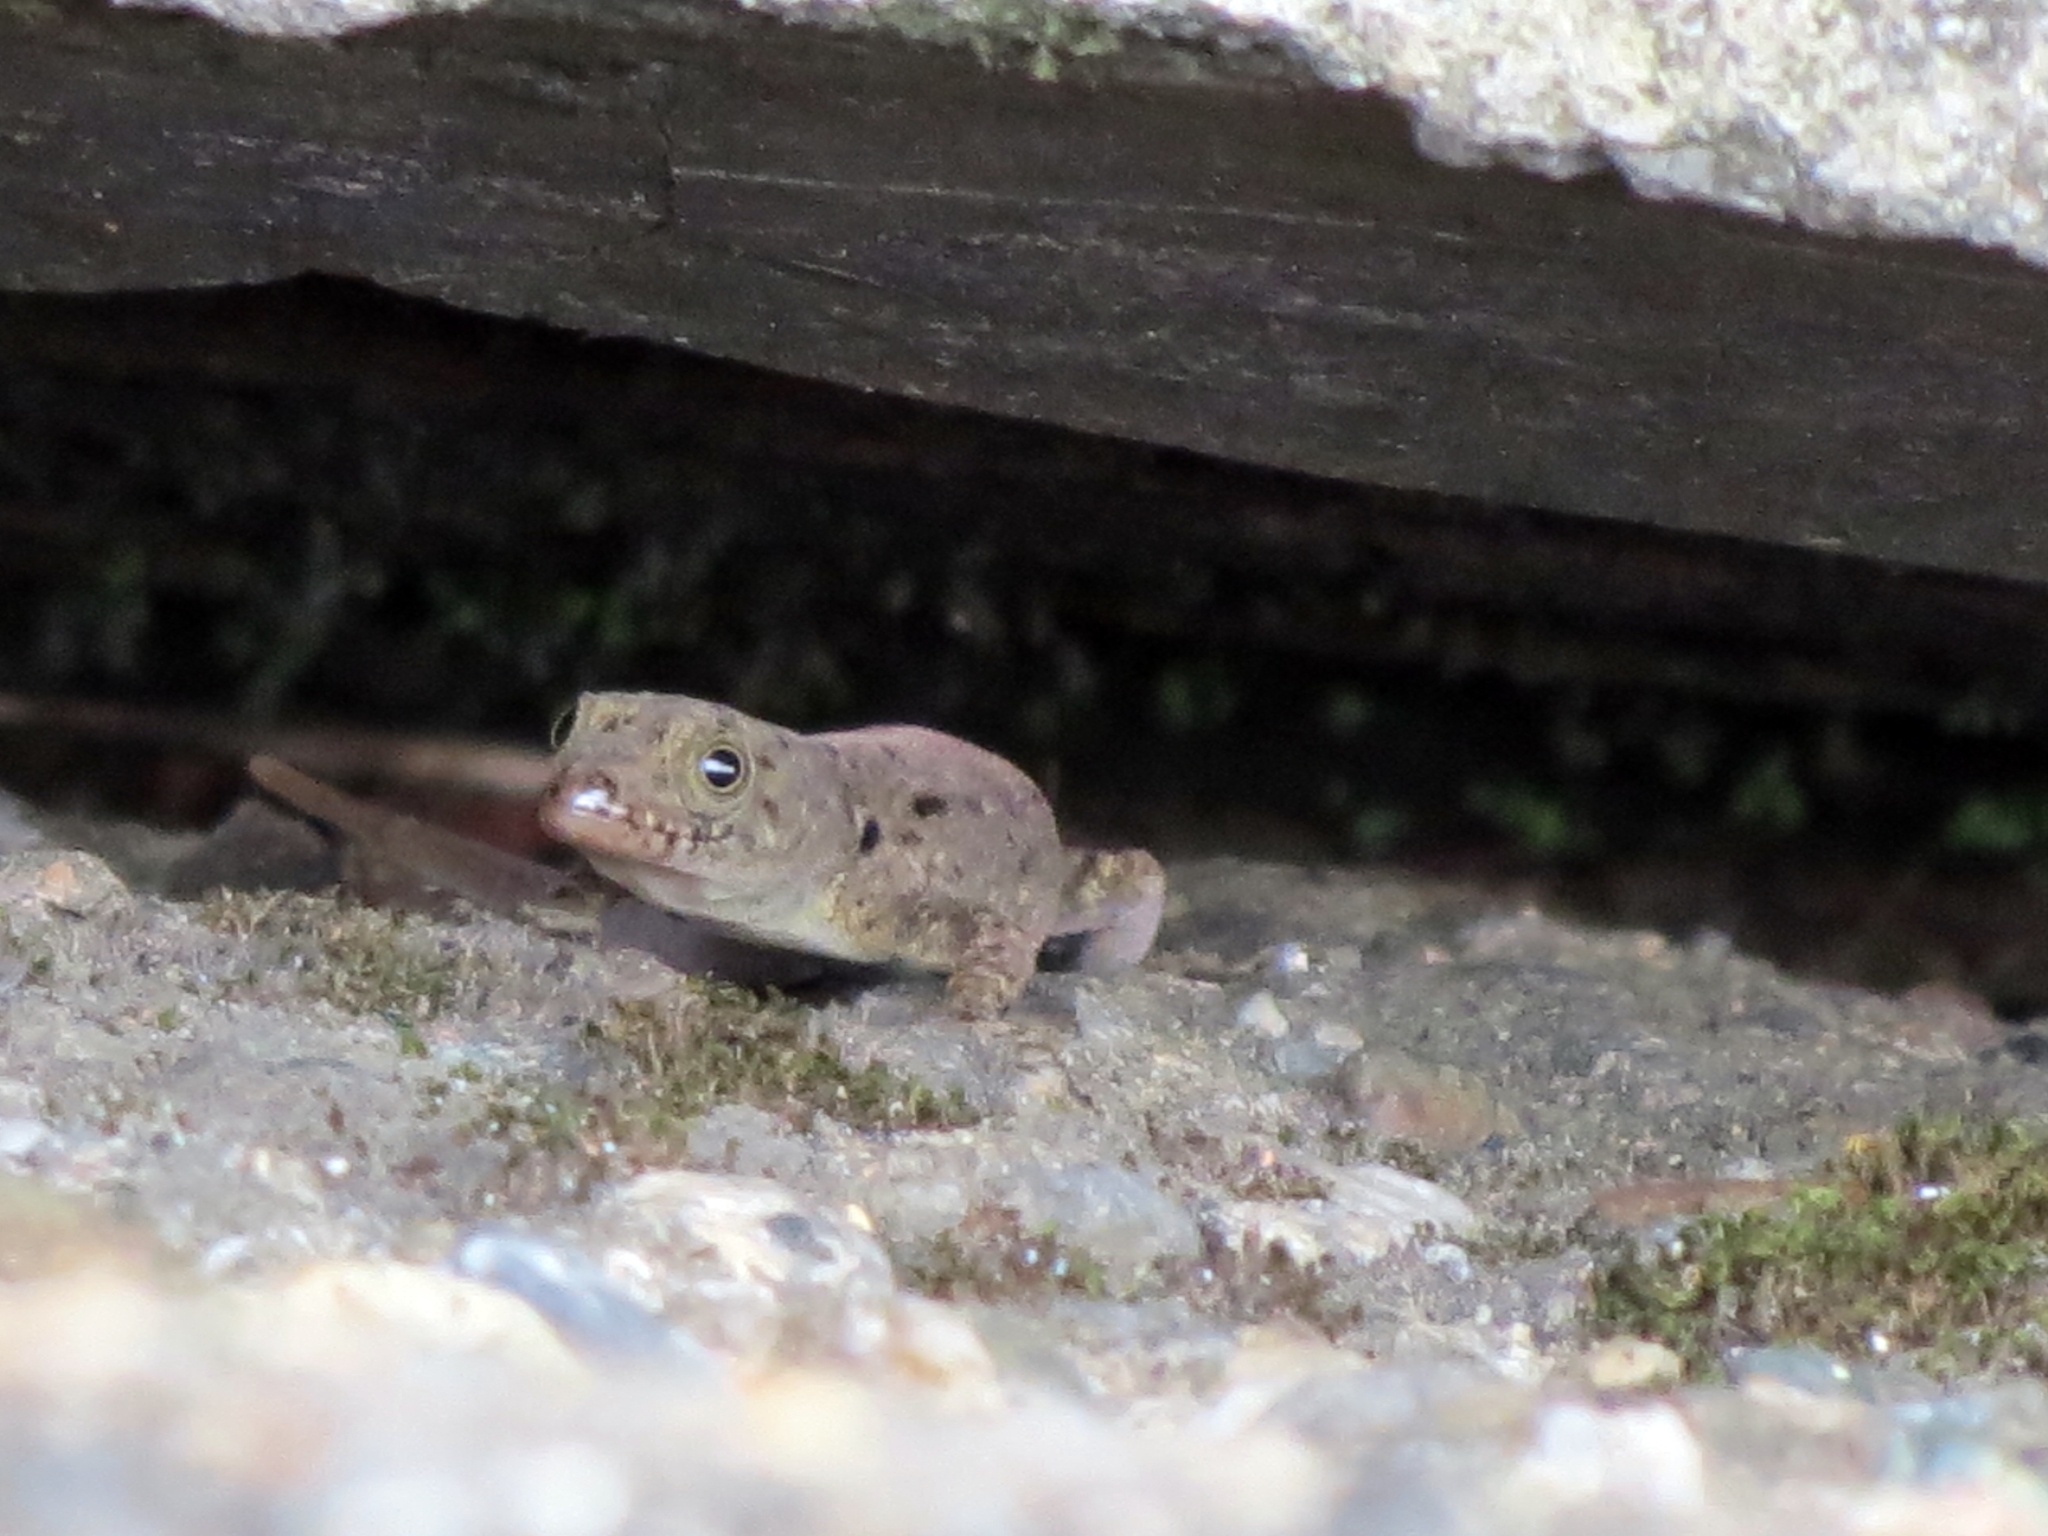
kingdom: Animalia
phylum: Chordata
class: Squamata
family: Sphaerodactylidae
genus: Gonatodes
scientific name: Gonatodes albogularis
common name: Yellow-headed gecko
